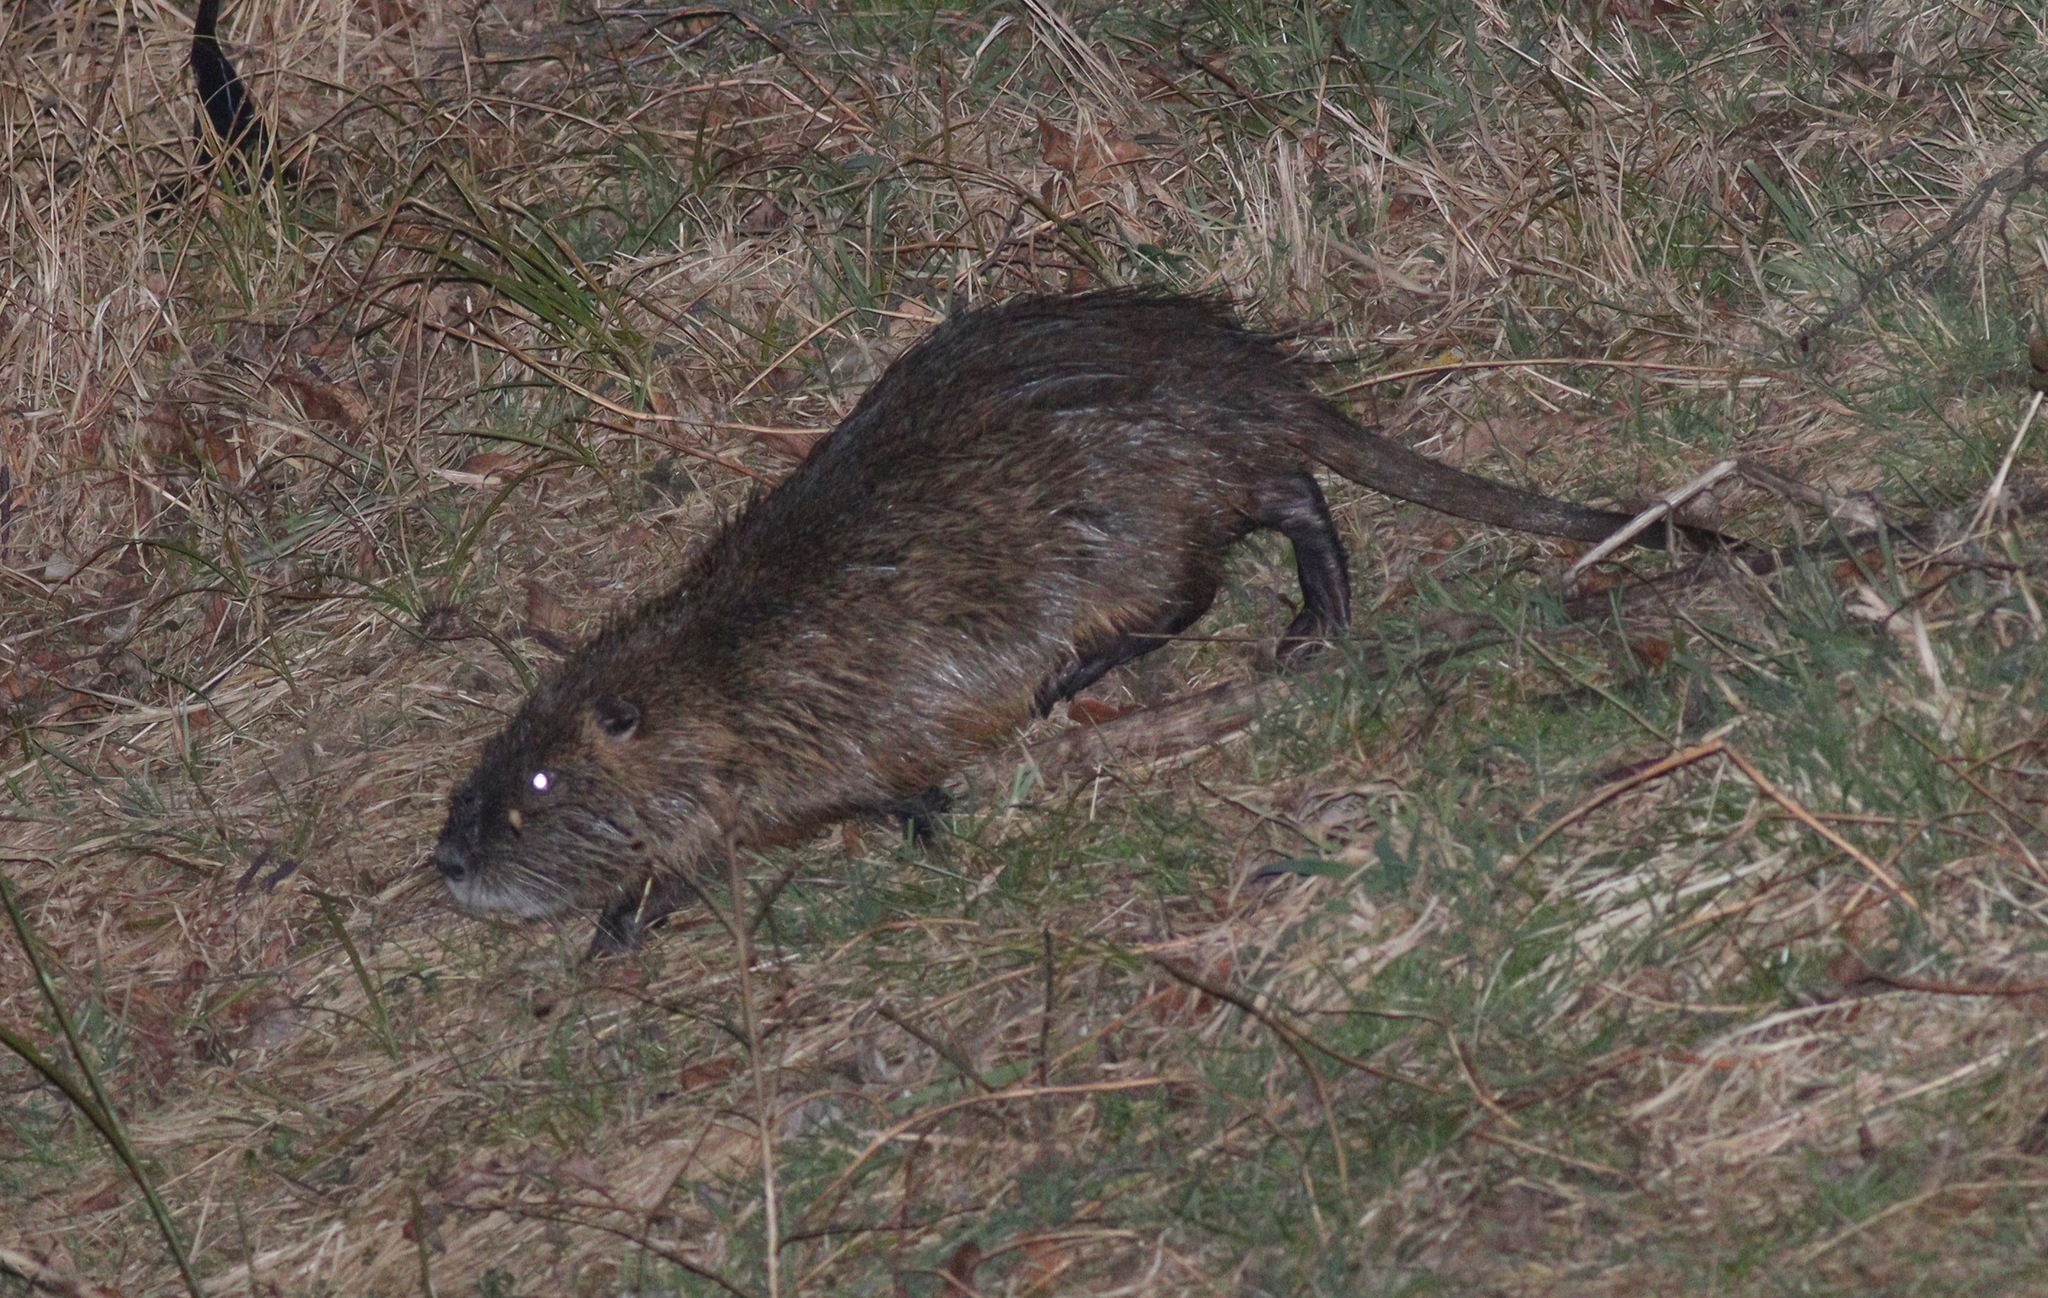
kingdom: Animalia
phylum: Chordata
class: Mammalia
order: Rodentia
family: Myocastoridae
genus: Myocastor
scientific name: Myocastor coypus
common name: Coypu
